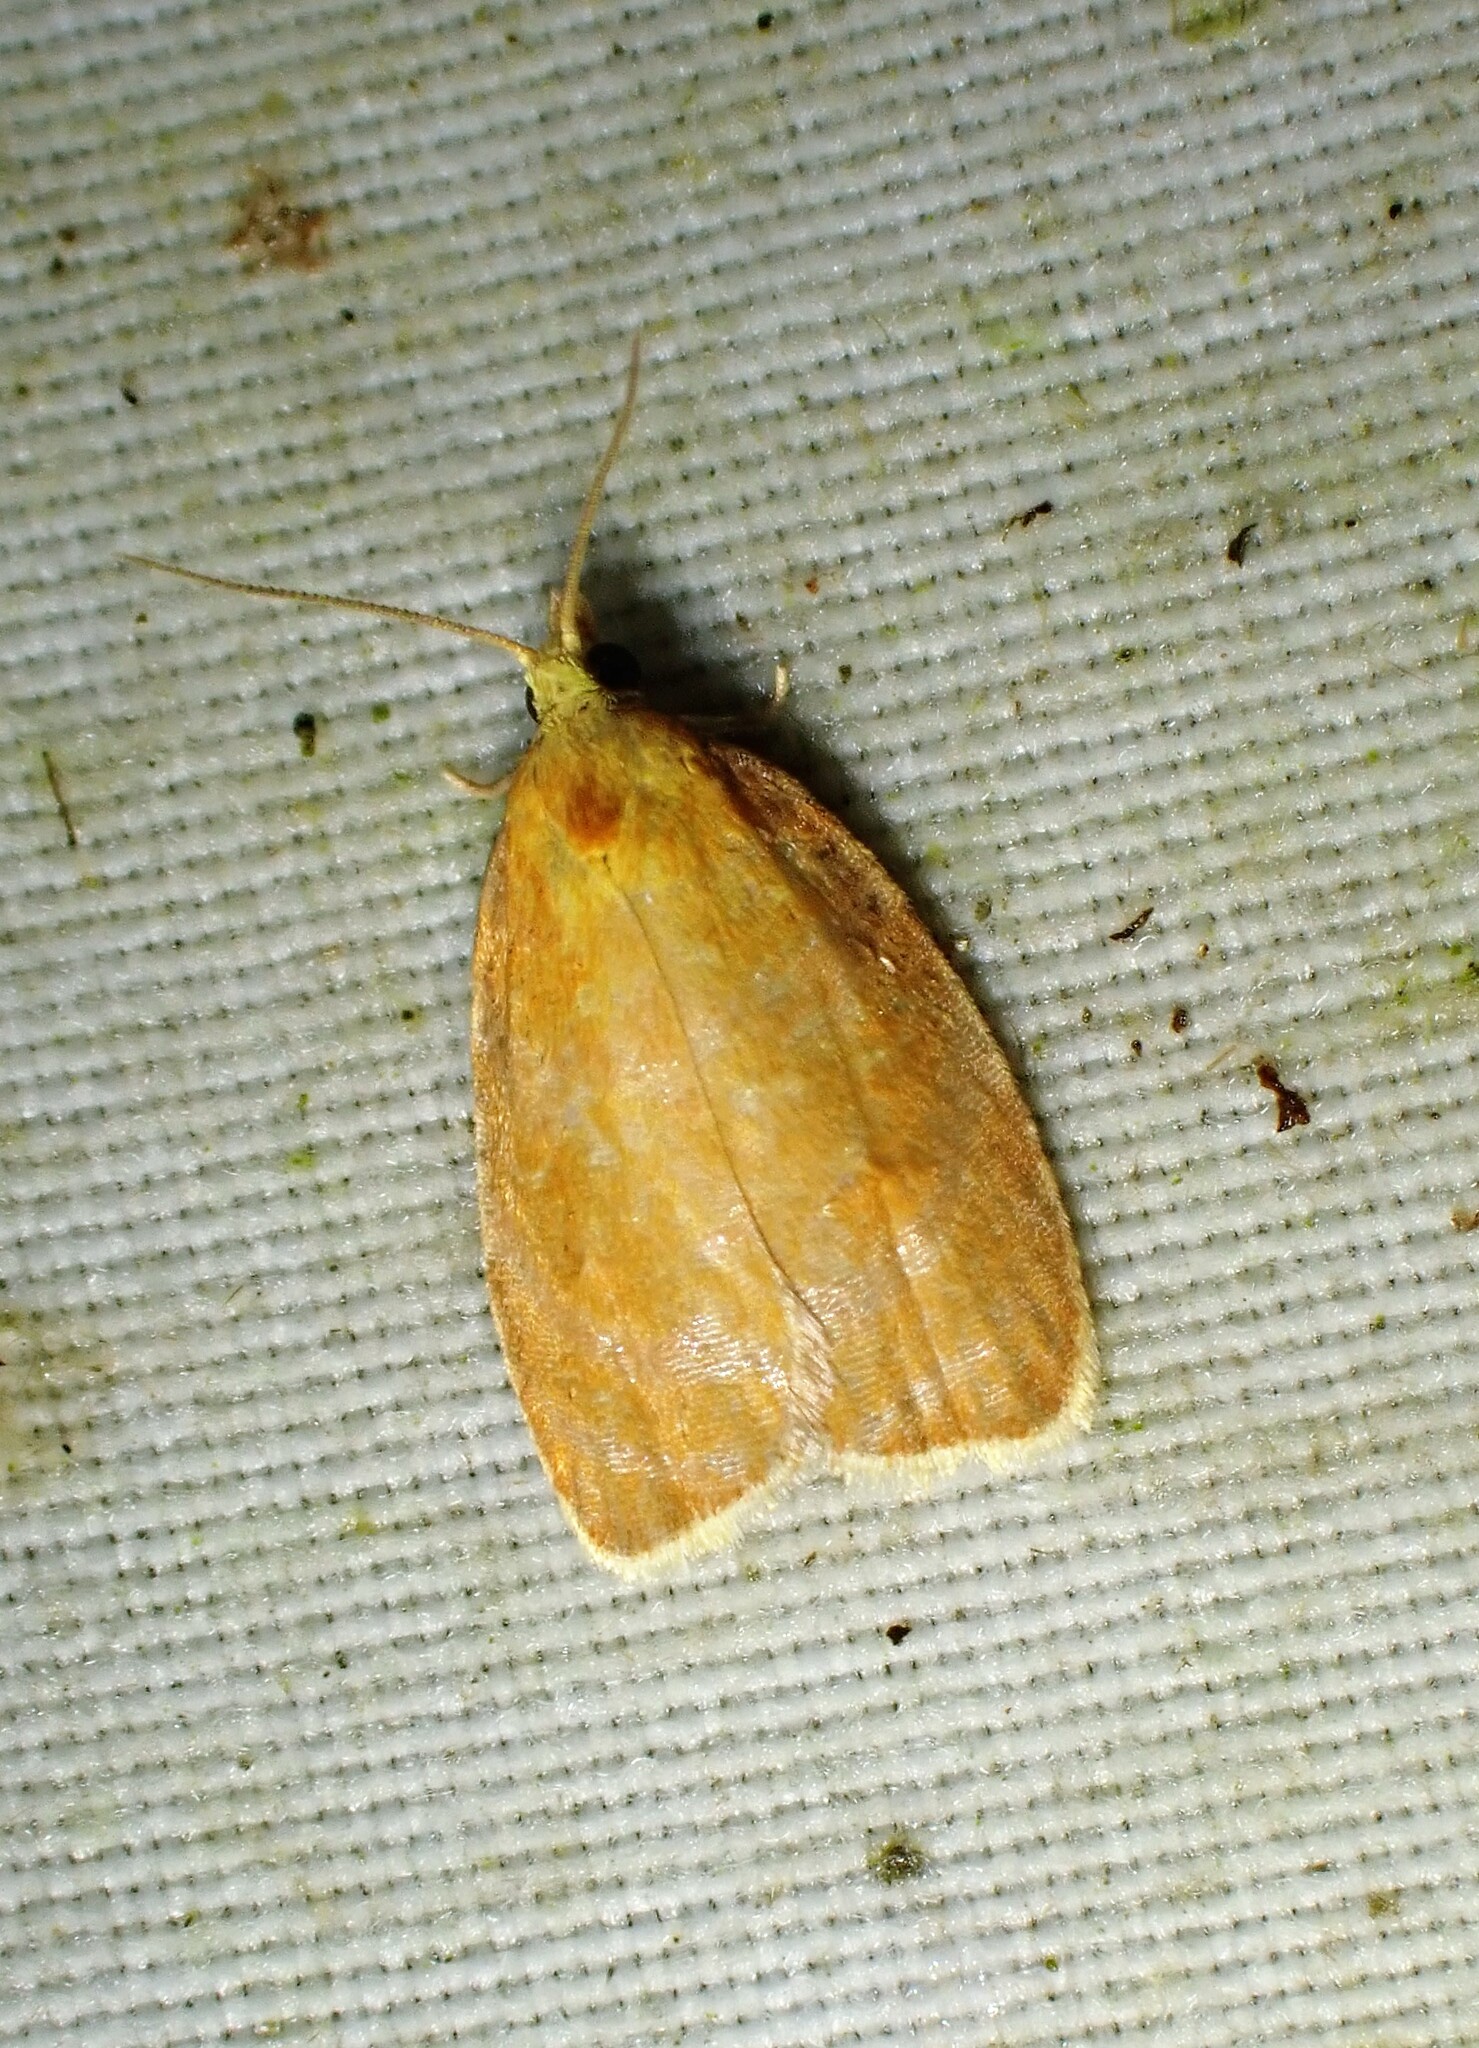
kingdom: Animalia
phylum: Arthropoda
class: Insecta
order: Lepidoptera
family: Tortricidae
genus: Acleris
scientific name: Acleris curvalana
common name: Blueberry leaftier moth
